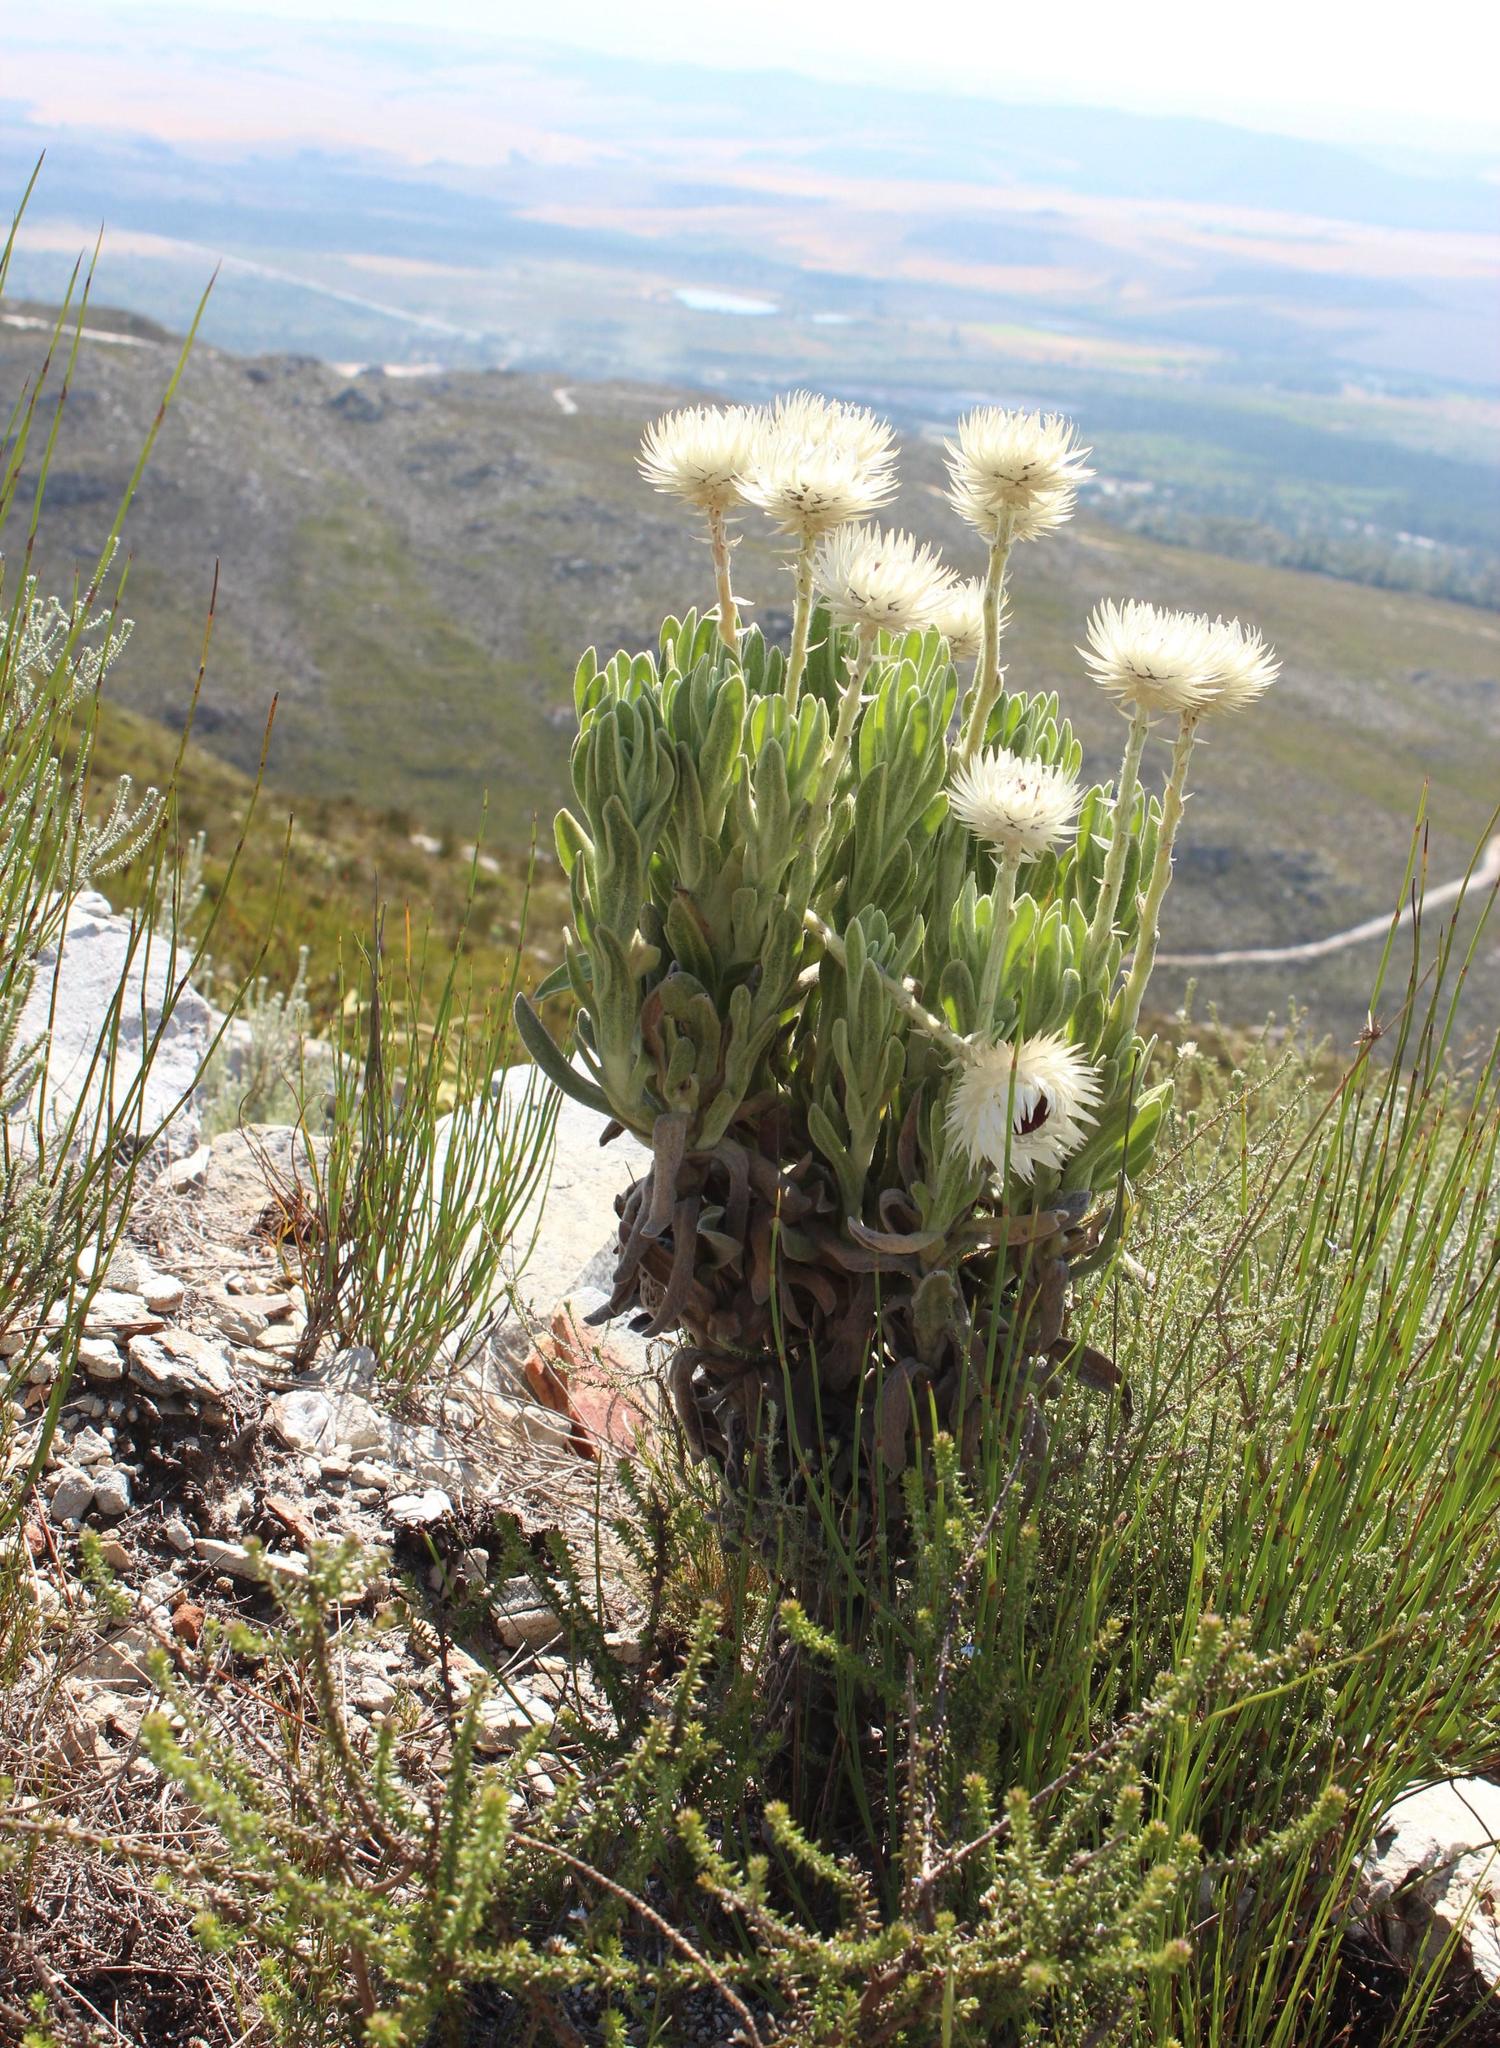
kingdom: Plantae
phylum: Tracheophyta
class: Magnoliopsida
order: Asterales
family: Asteraceae
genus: Syncarpha
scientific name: Syncarpha vestita
